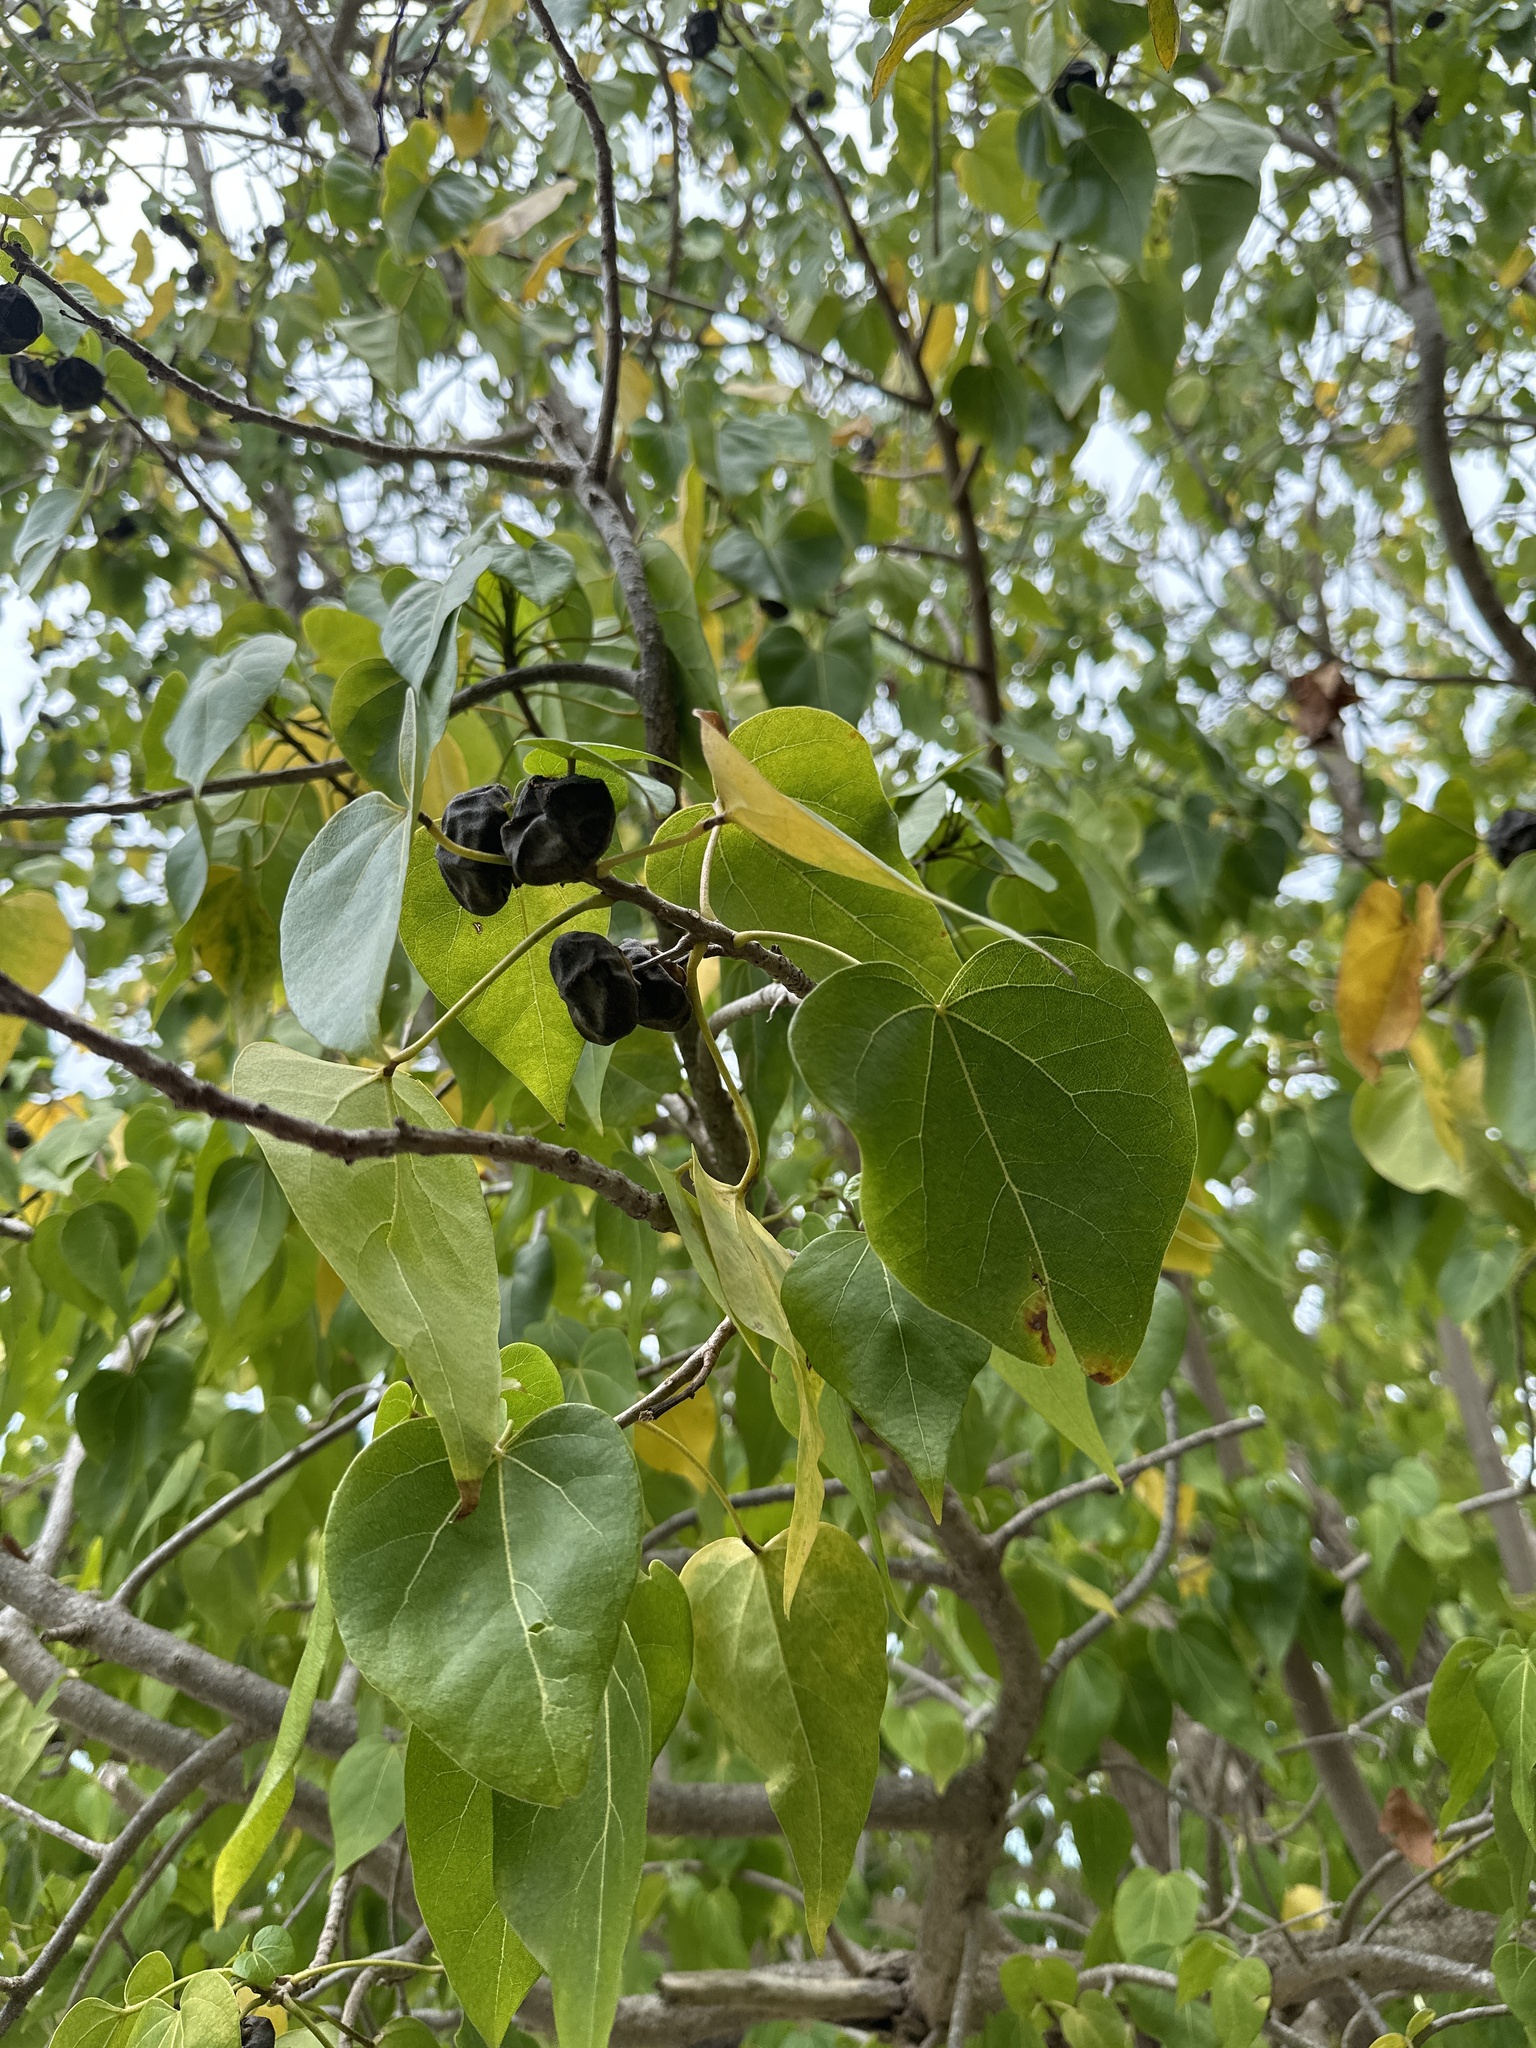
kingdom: Plantae
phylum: Tracheophyta
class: Magnoliopsida
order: Malvales
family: Malvaceae
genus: Thespesia
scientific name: Thespesia populnea
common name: Seaside mahoe
